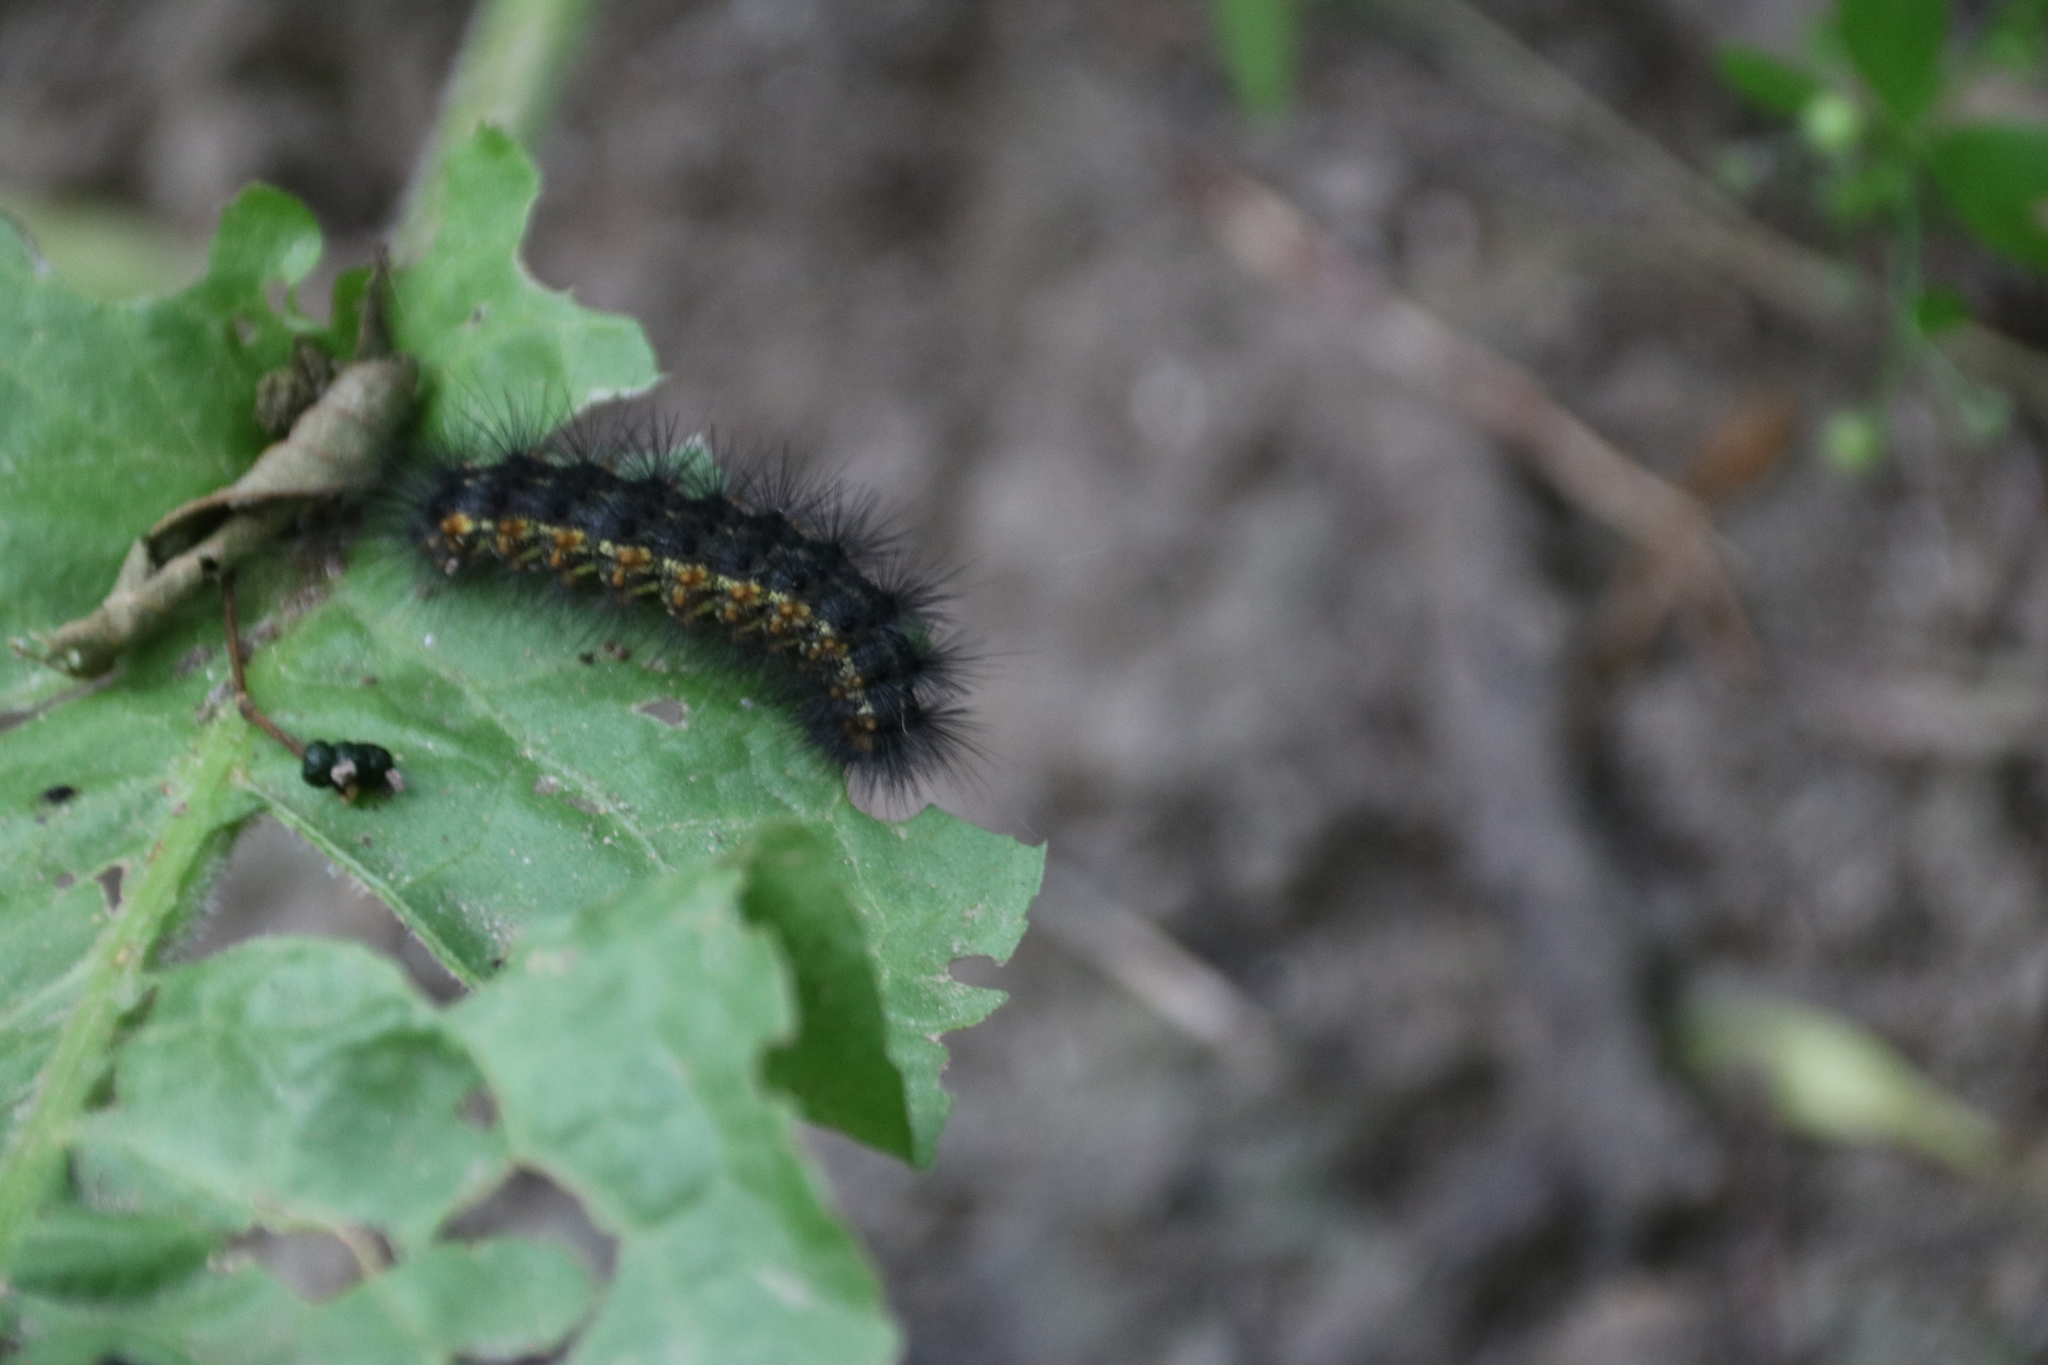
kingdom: Animalia
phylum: Arthropoda
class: Insecta
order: Lepidoptera
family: Erebidae
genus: Estigmene
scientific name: Estigmene acrea
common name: Salt marsh moth
